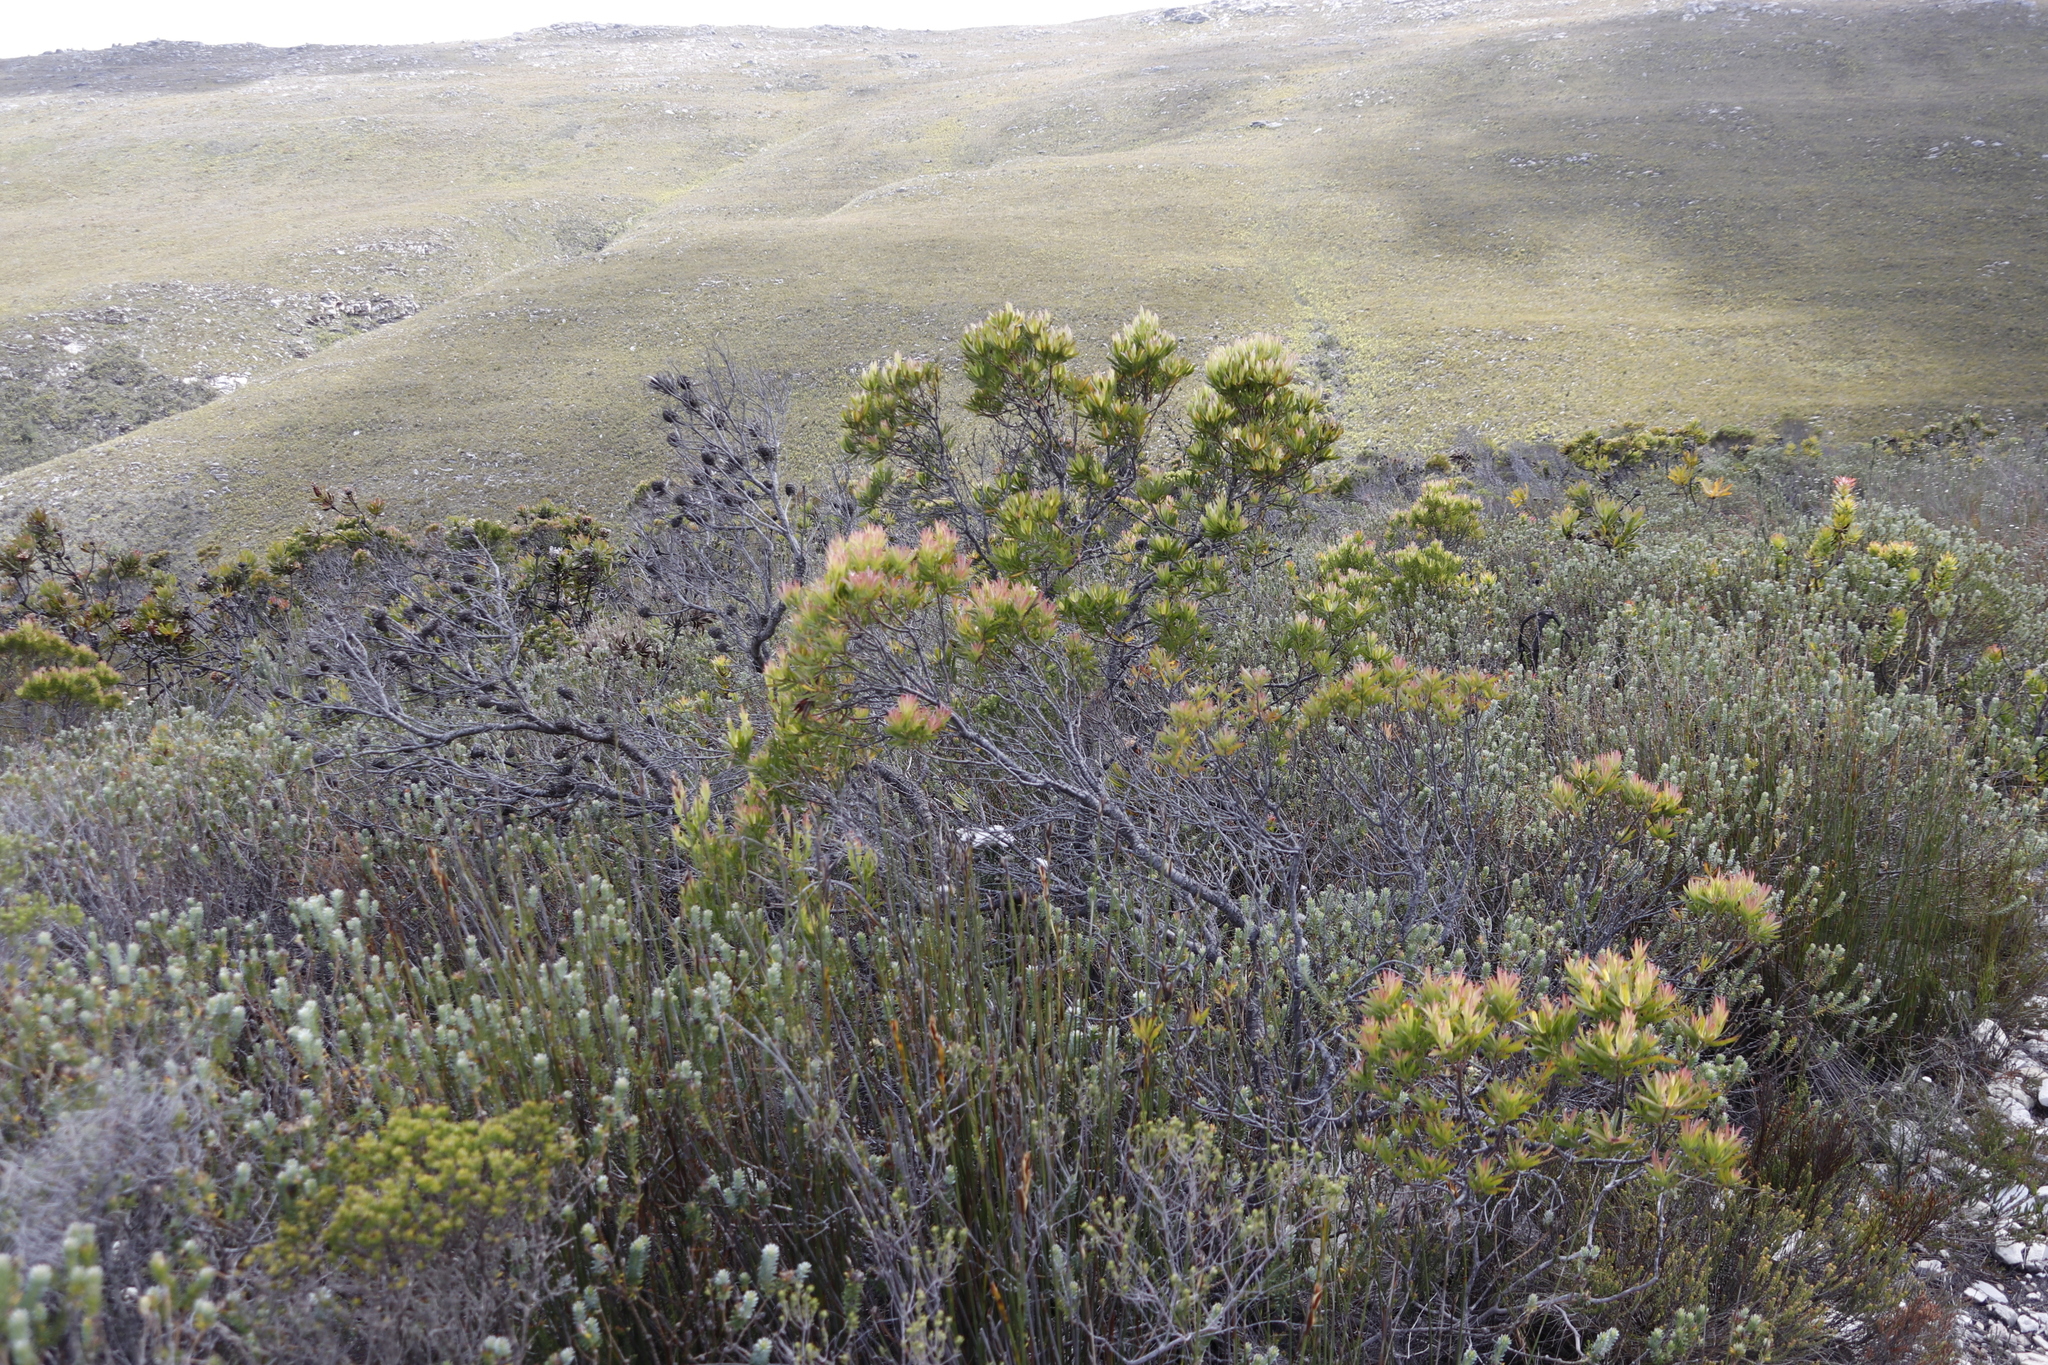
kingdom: Plantae
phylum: Tracheophyta
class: Magnoliopsida
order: Proteales
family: Proteaceae
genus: Leucadendron
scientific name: Leucadendron xanthoconus
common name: Sickle-leaf conebush
